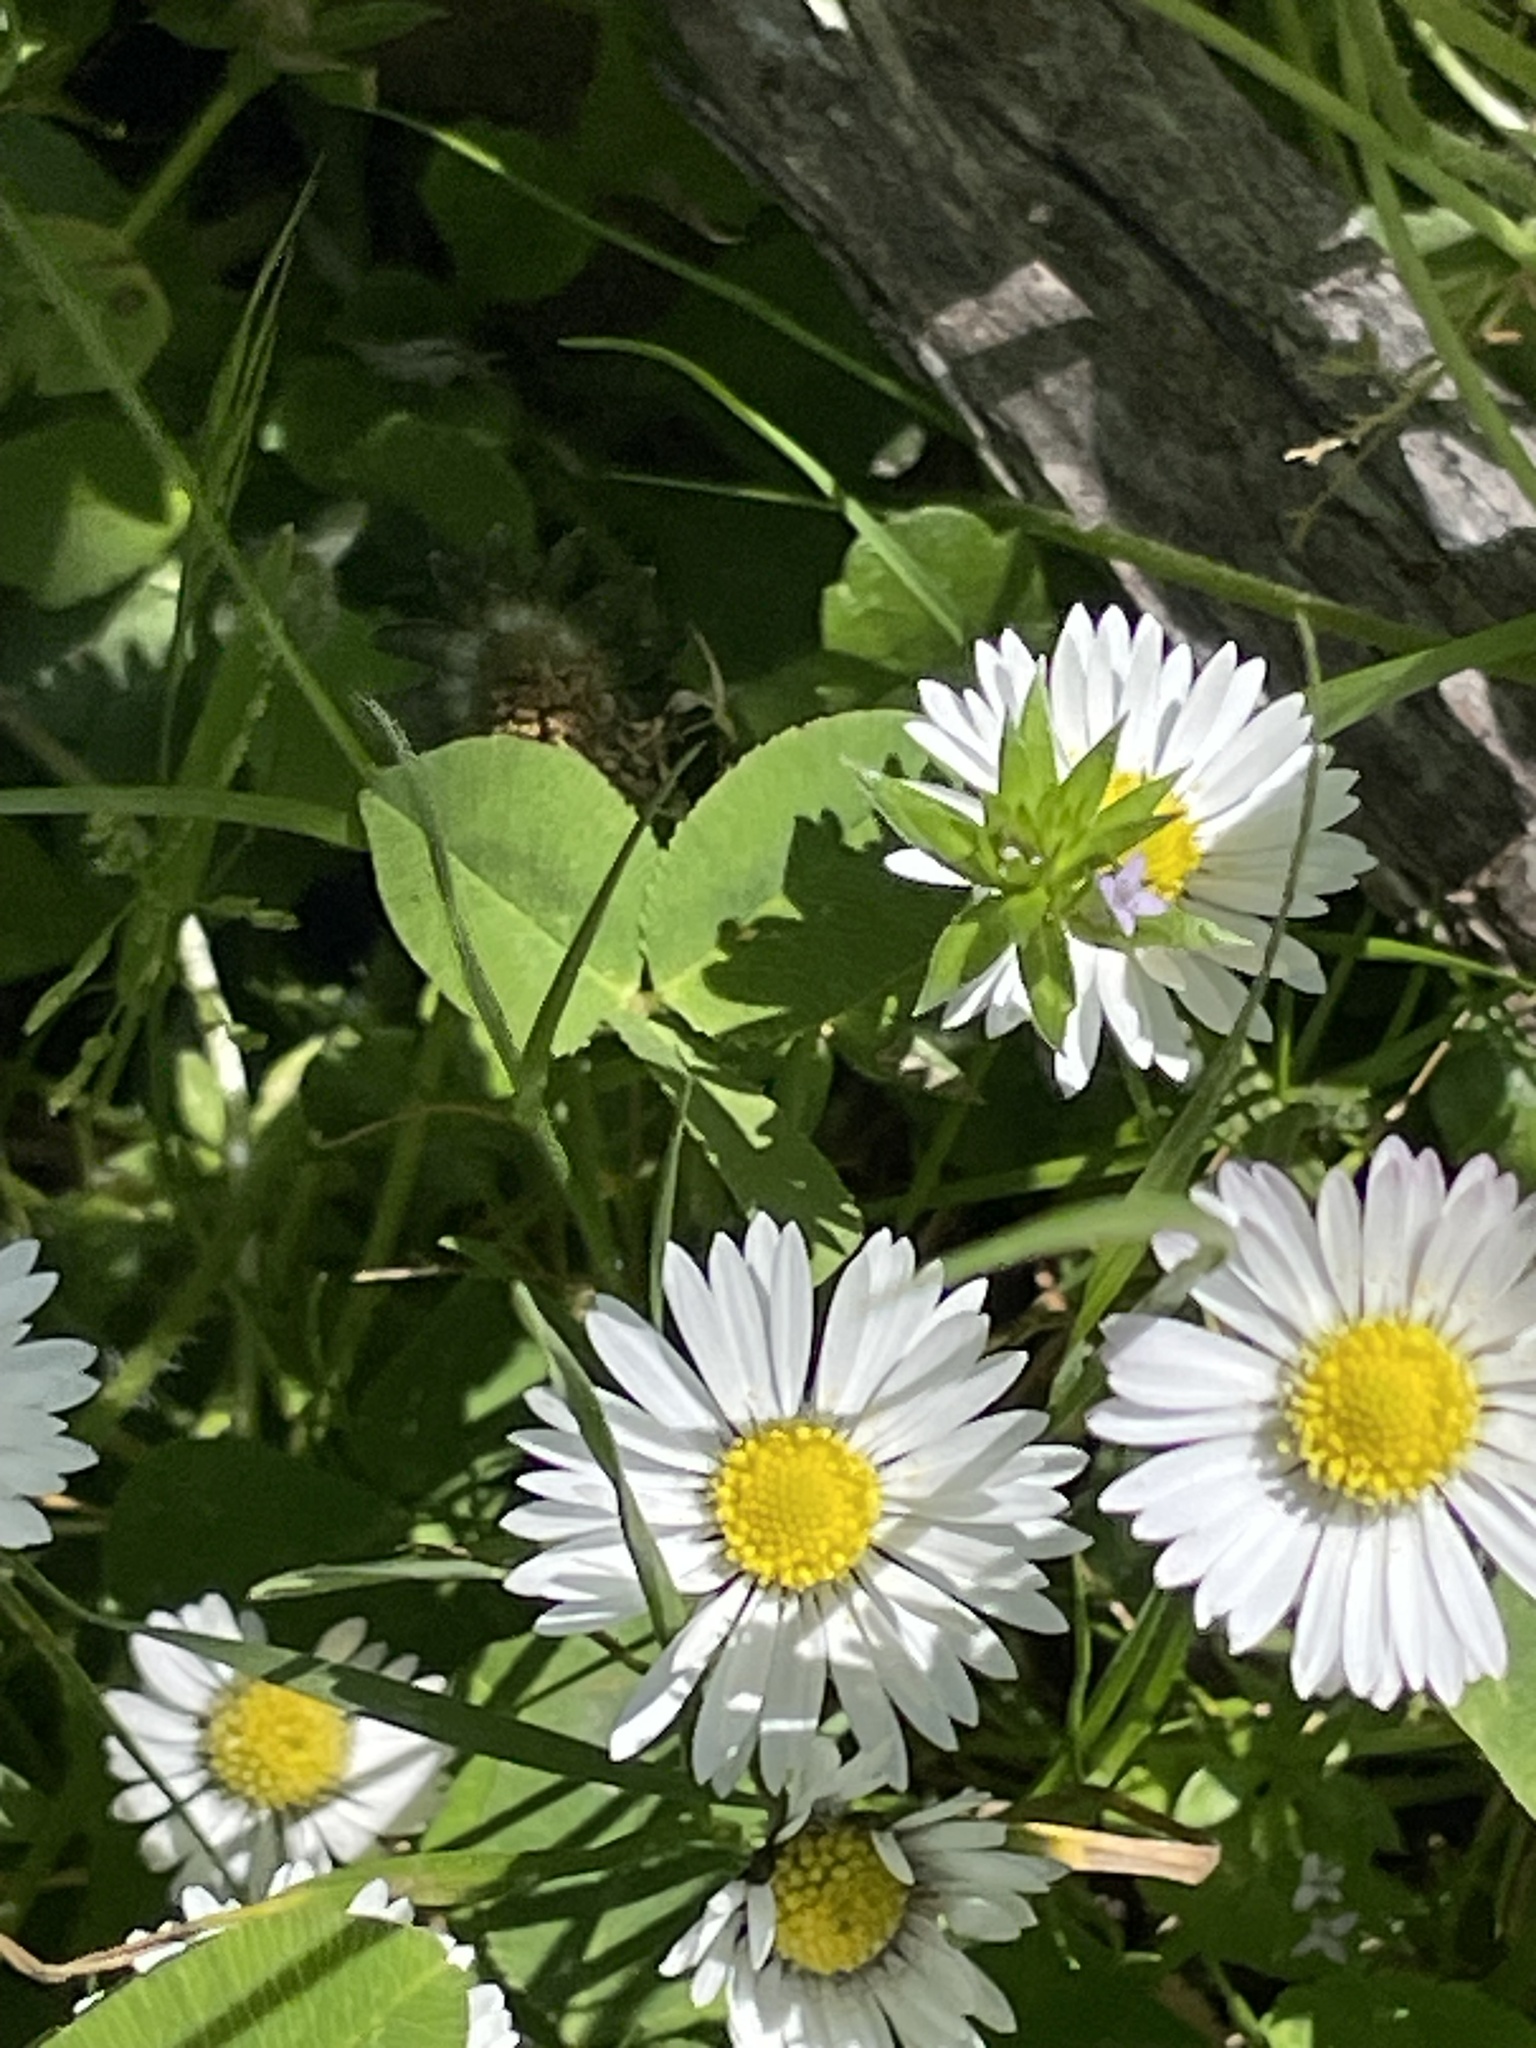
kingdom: Plantae
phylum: Tracheophyta
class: Magnoliopsida
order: Asterales
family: Asteraceae
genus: Bellis
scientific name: Bellis perennis
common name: Lawndaisy
